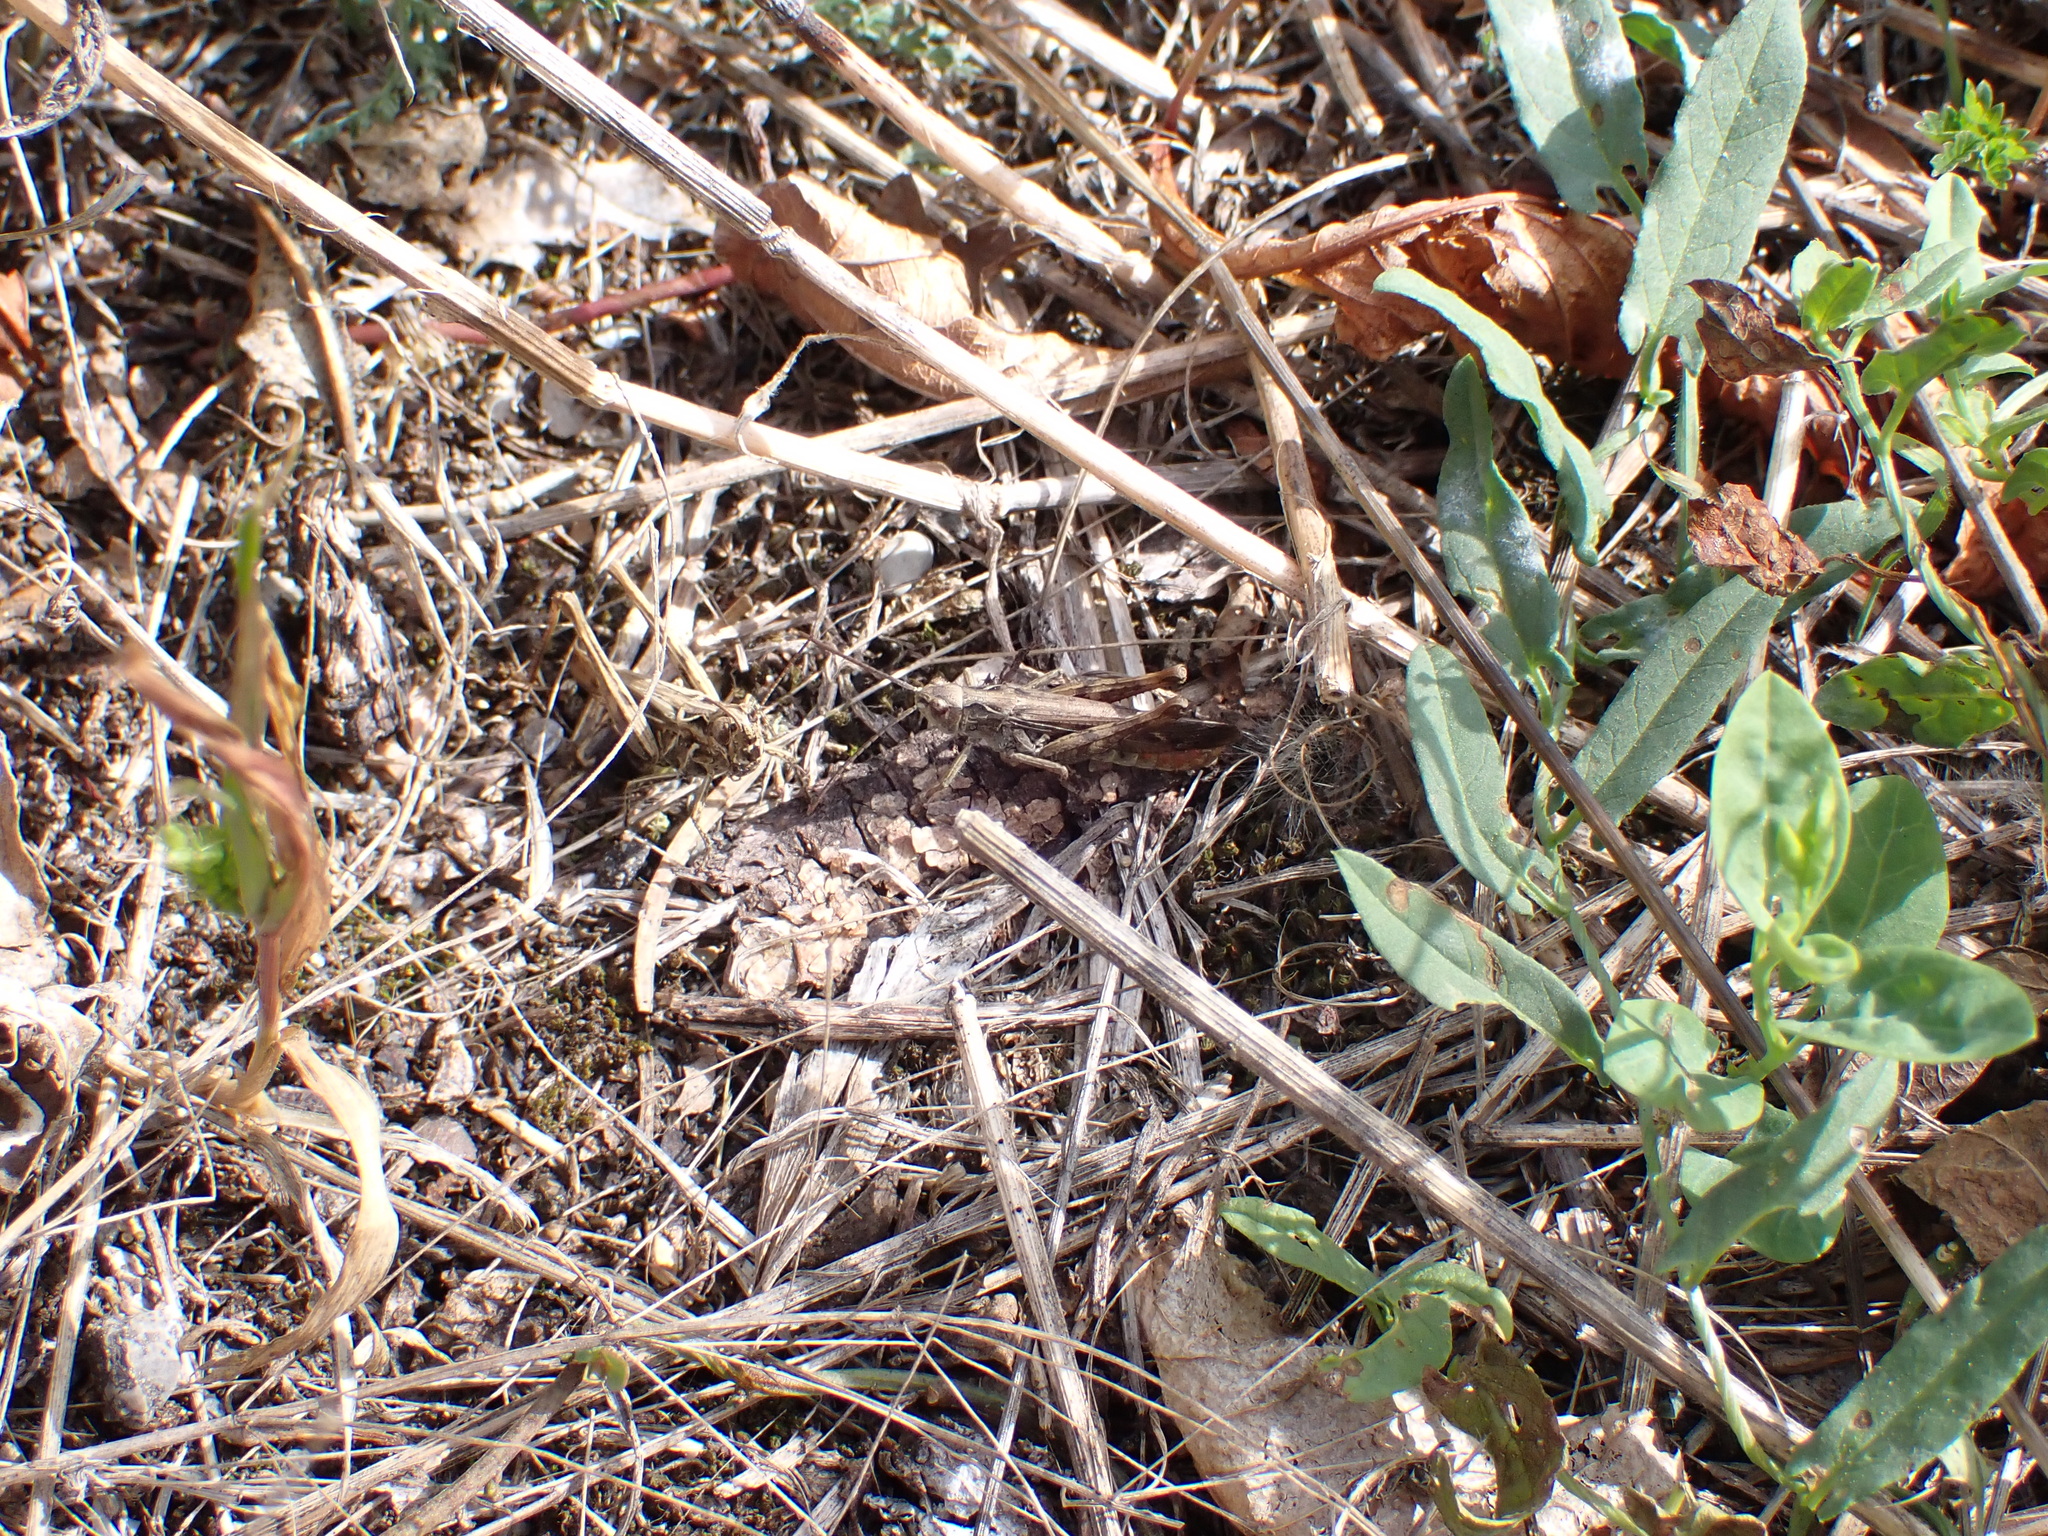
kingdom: Animalia
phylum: Arthropoda
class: Insecta
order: Orthoptera
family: Acrididae
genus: Chorthippus
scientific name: Chorthippus biguttulus
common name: Bow-winged grasshopper
